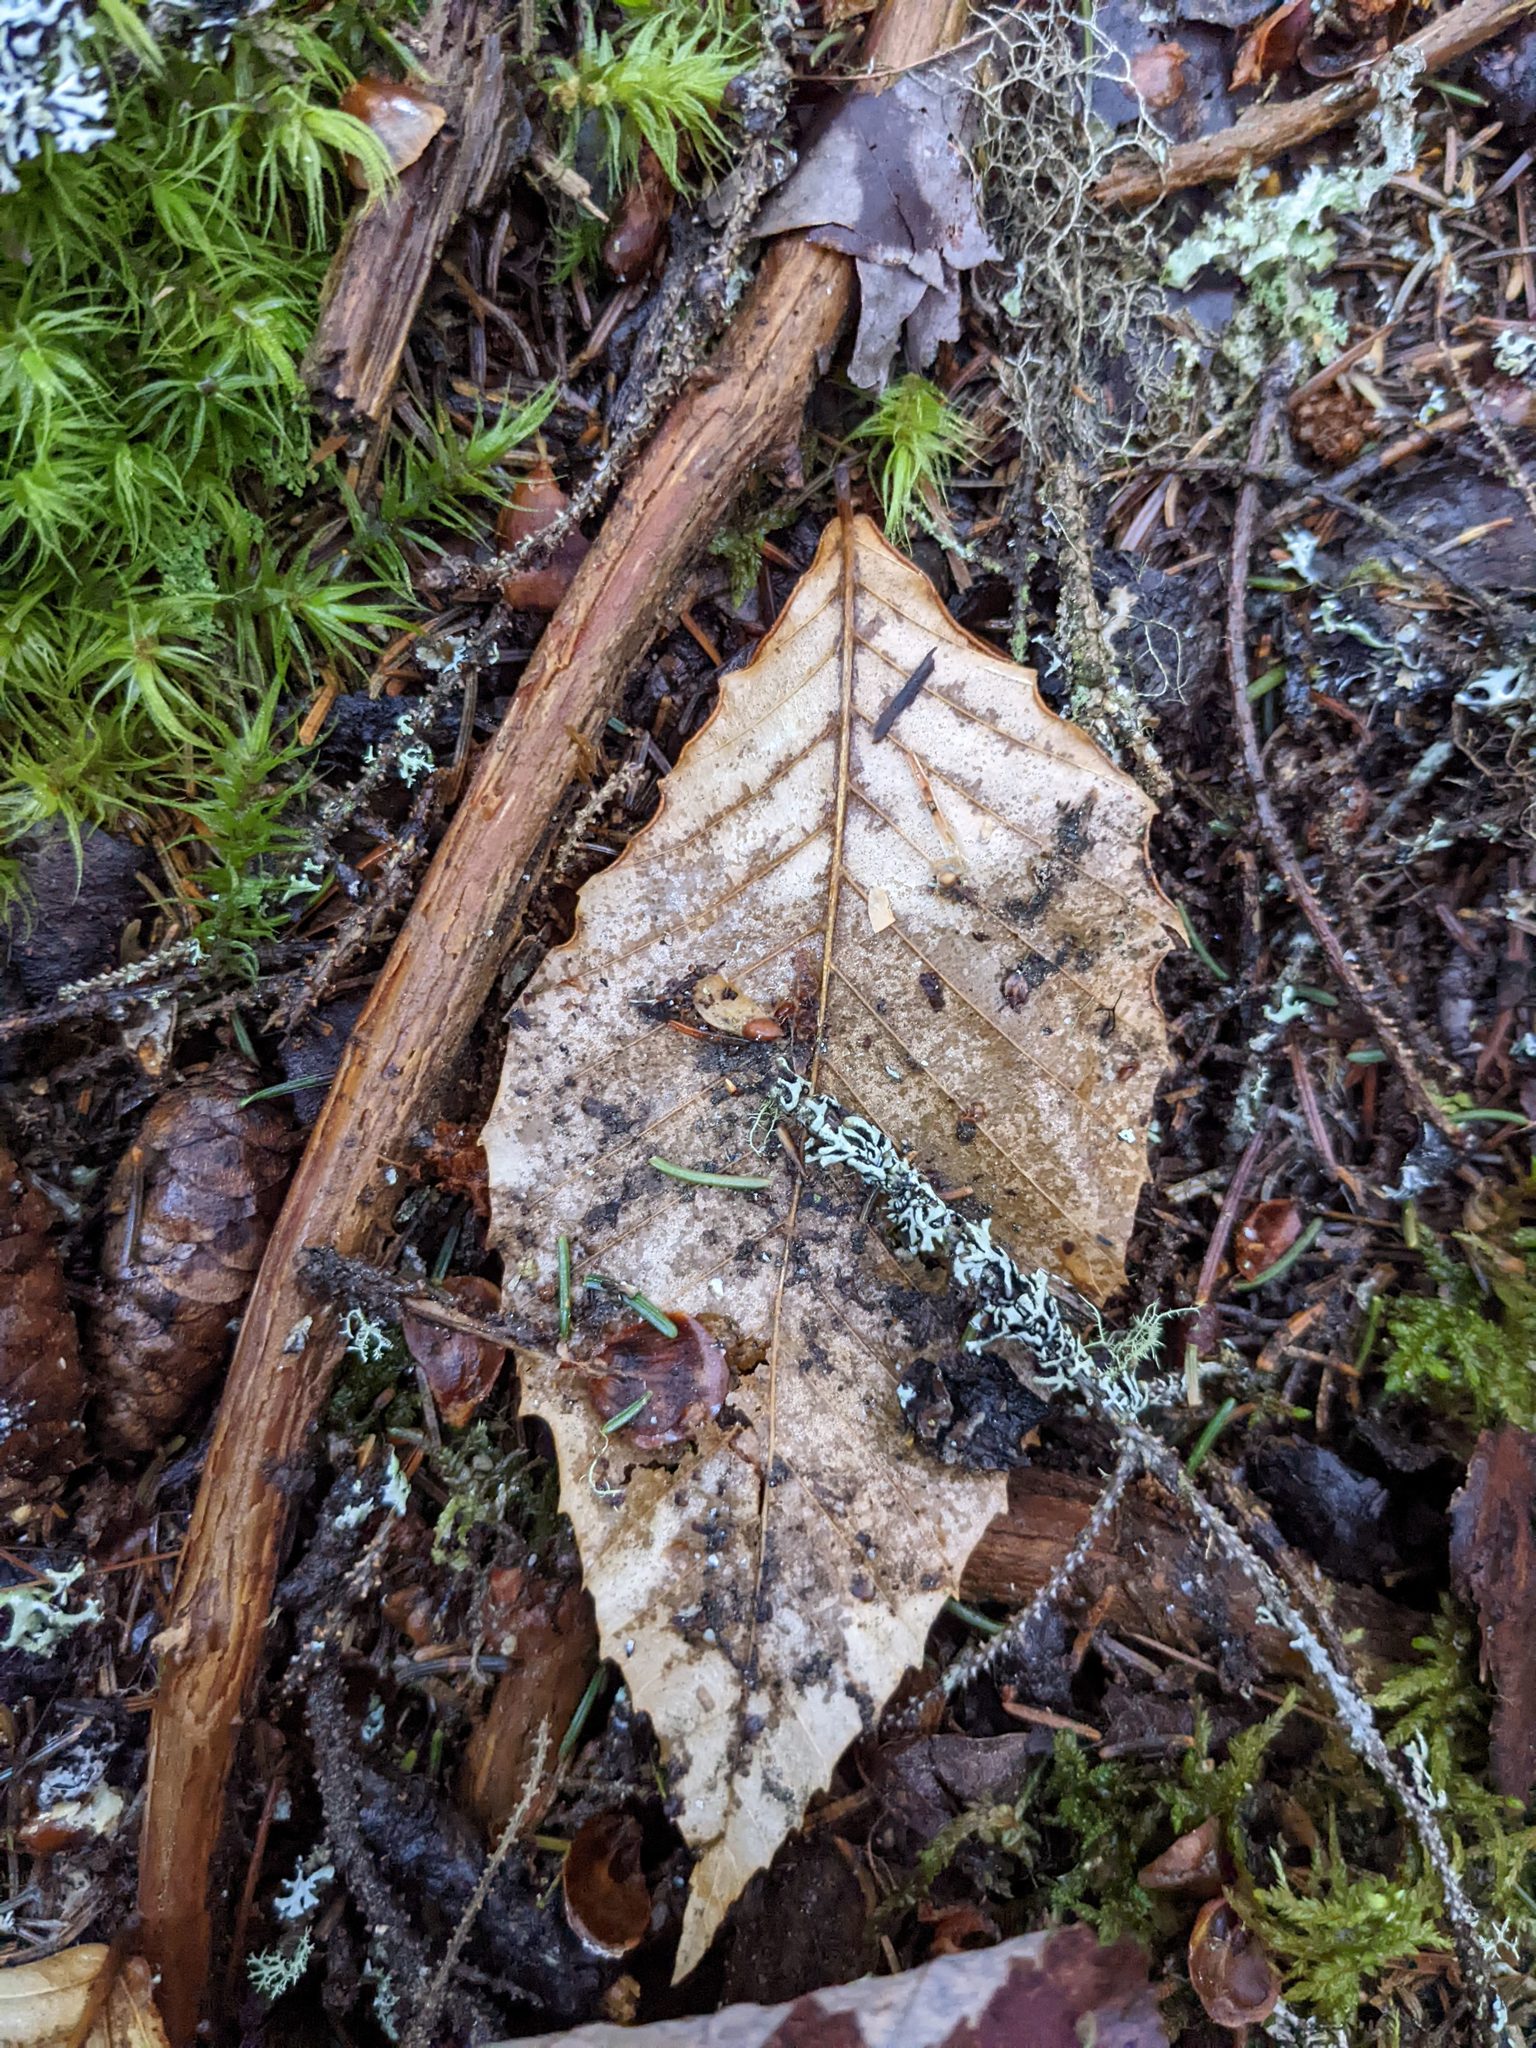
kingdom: Plantae
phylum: Tracheophyta
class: Magnoliopsida
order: Fagales
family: Fagaceae
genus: Fagus
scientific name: Fagus grandifolia
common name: American beech
